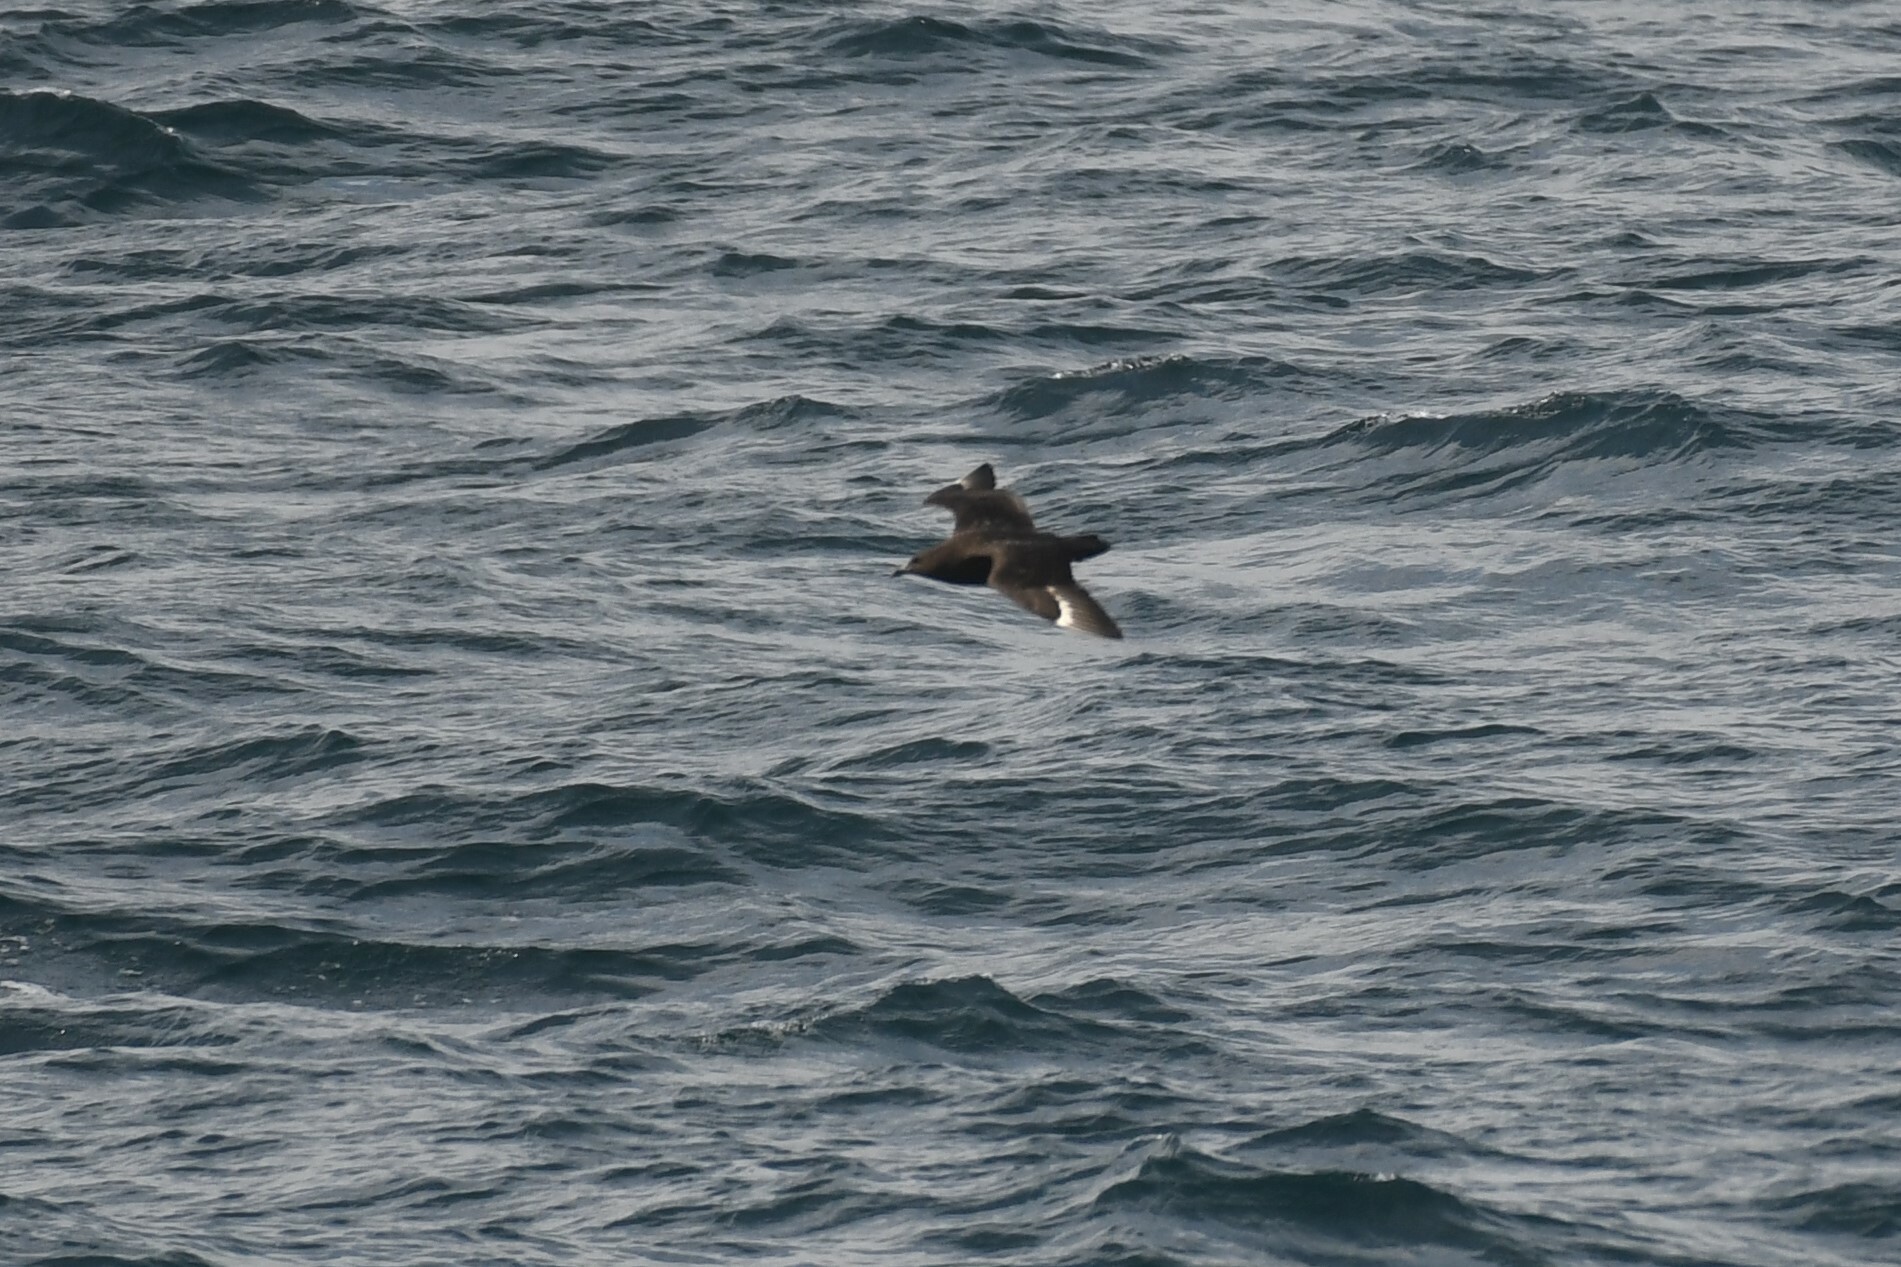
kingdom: Animalia
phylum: Chordata
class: Aves
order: Charadriiformes
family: Stercorariidae
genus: Stercorarius
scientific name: Stercorarius antarcticus
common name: Brown skua
